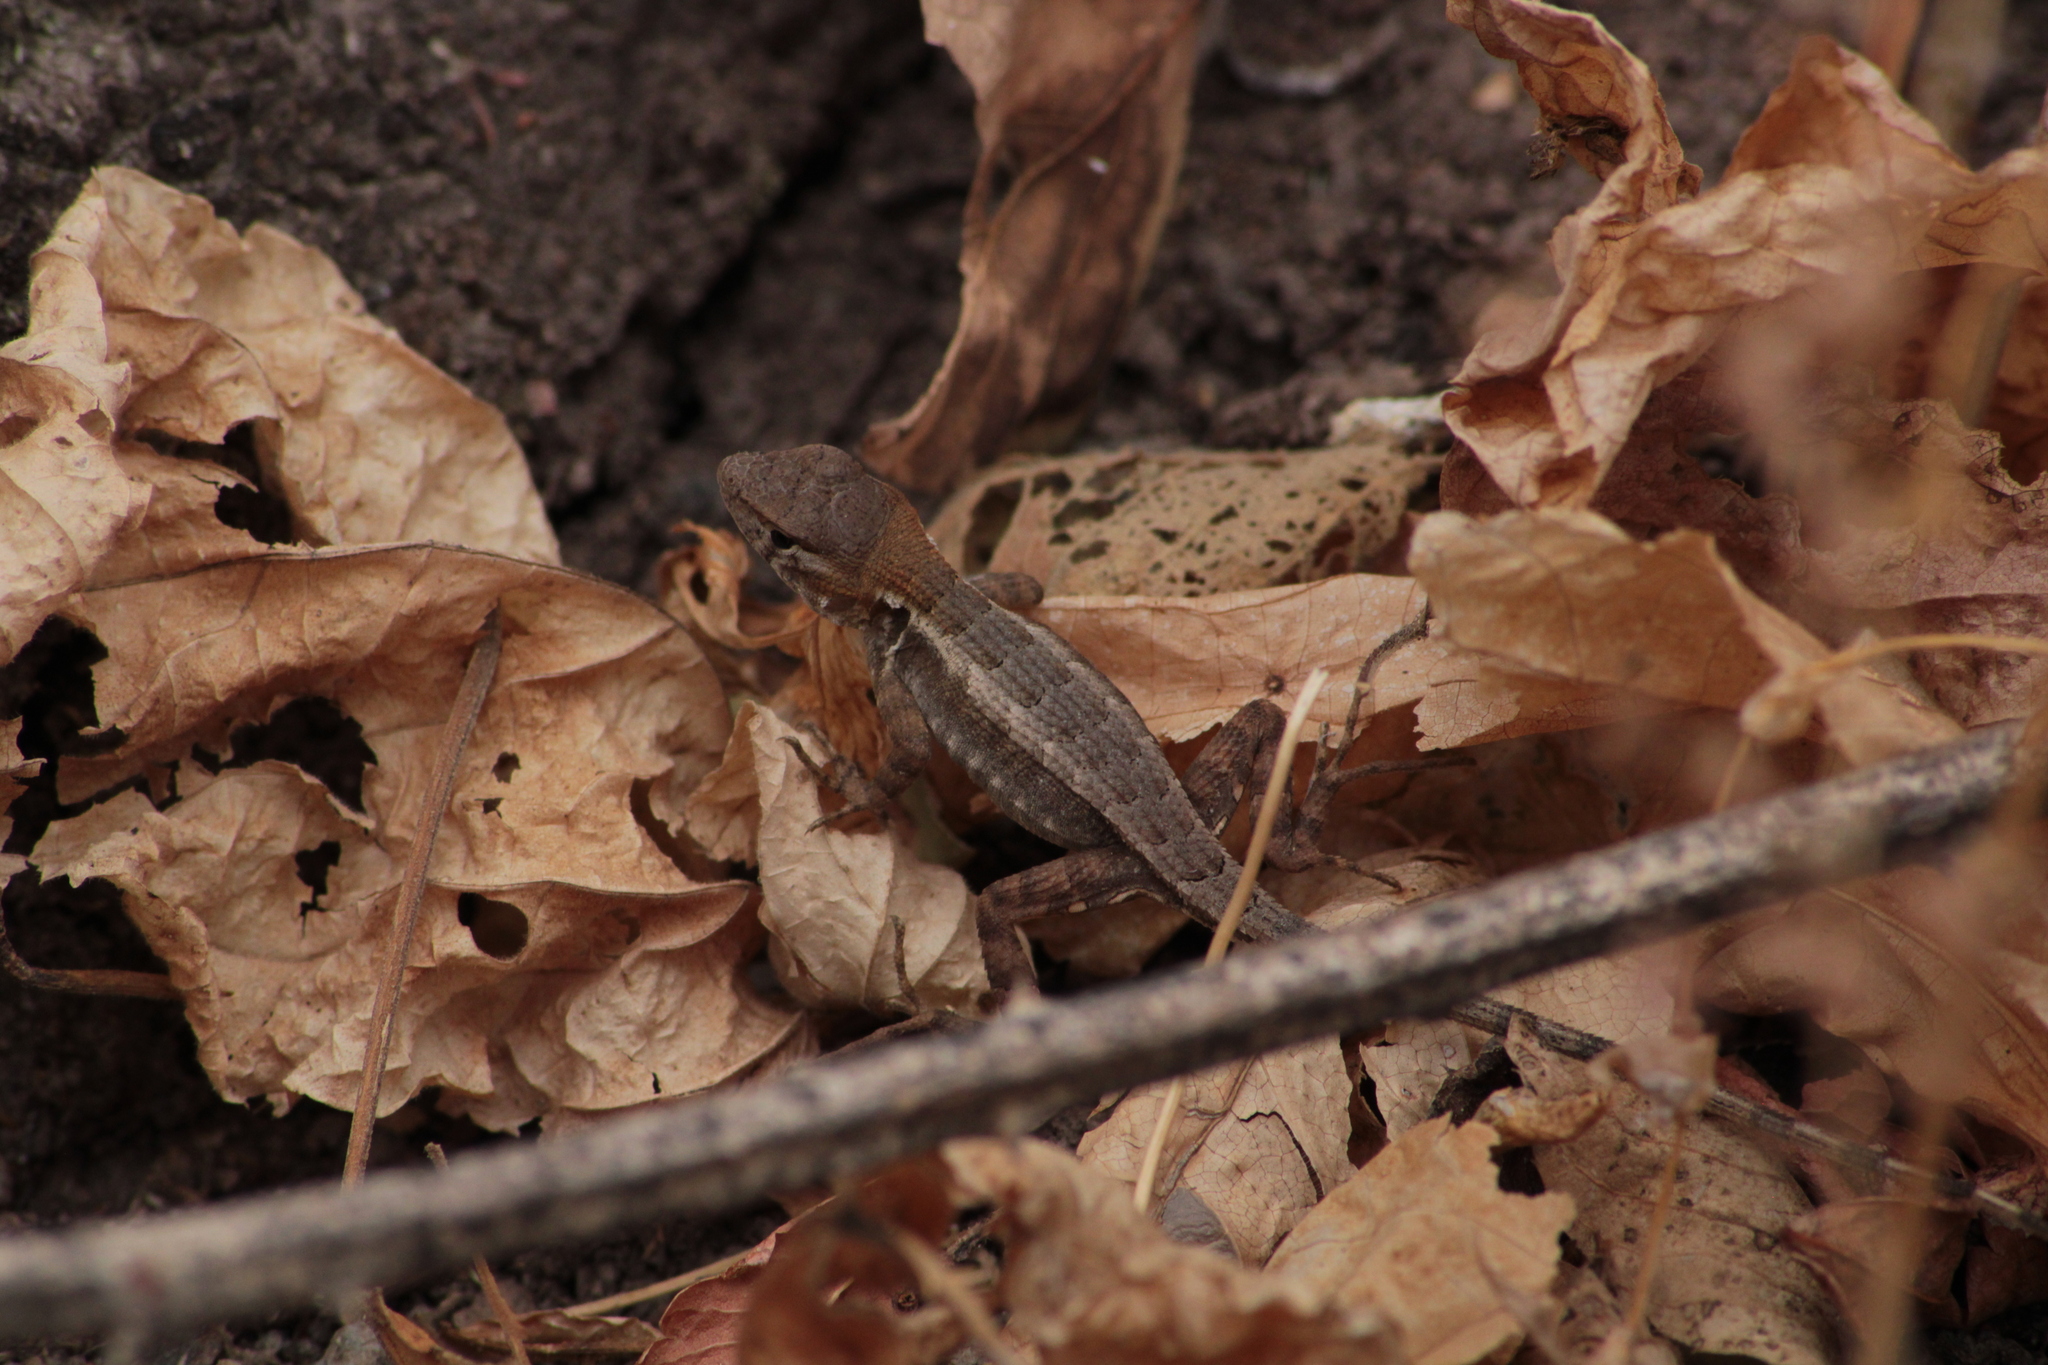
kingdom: Animalia
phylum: Chordata
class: Squamata
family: Phrynosomatidae
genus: Sceloporus
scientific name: Sceloporus utiformis
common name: Antesator
